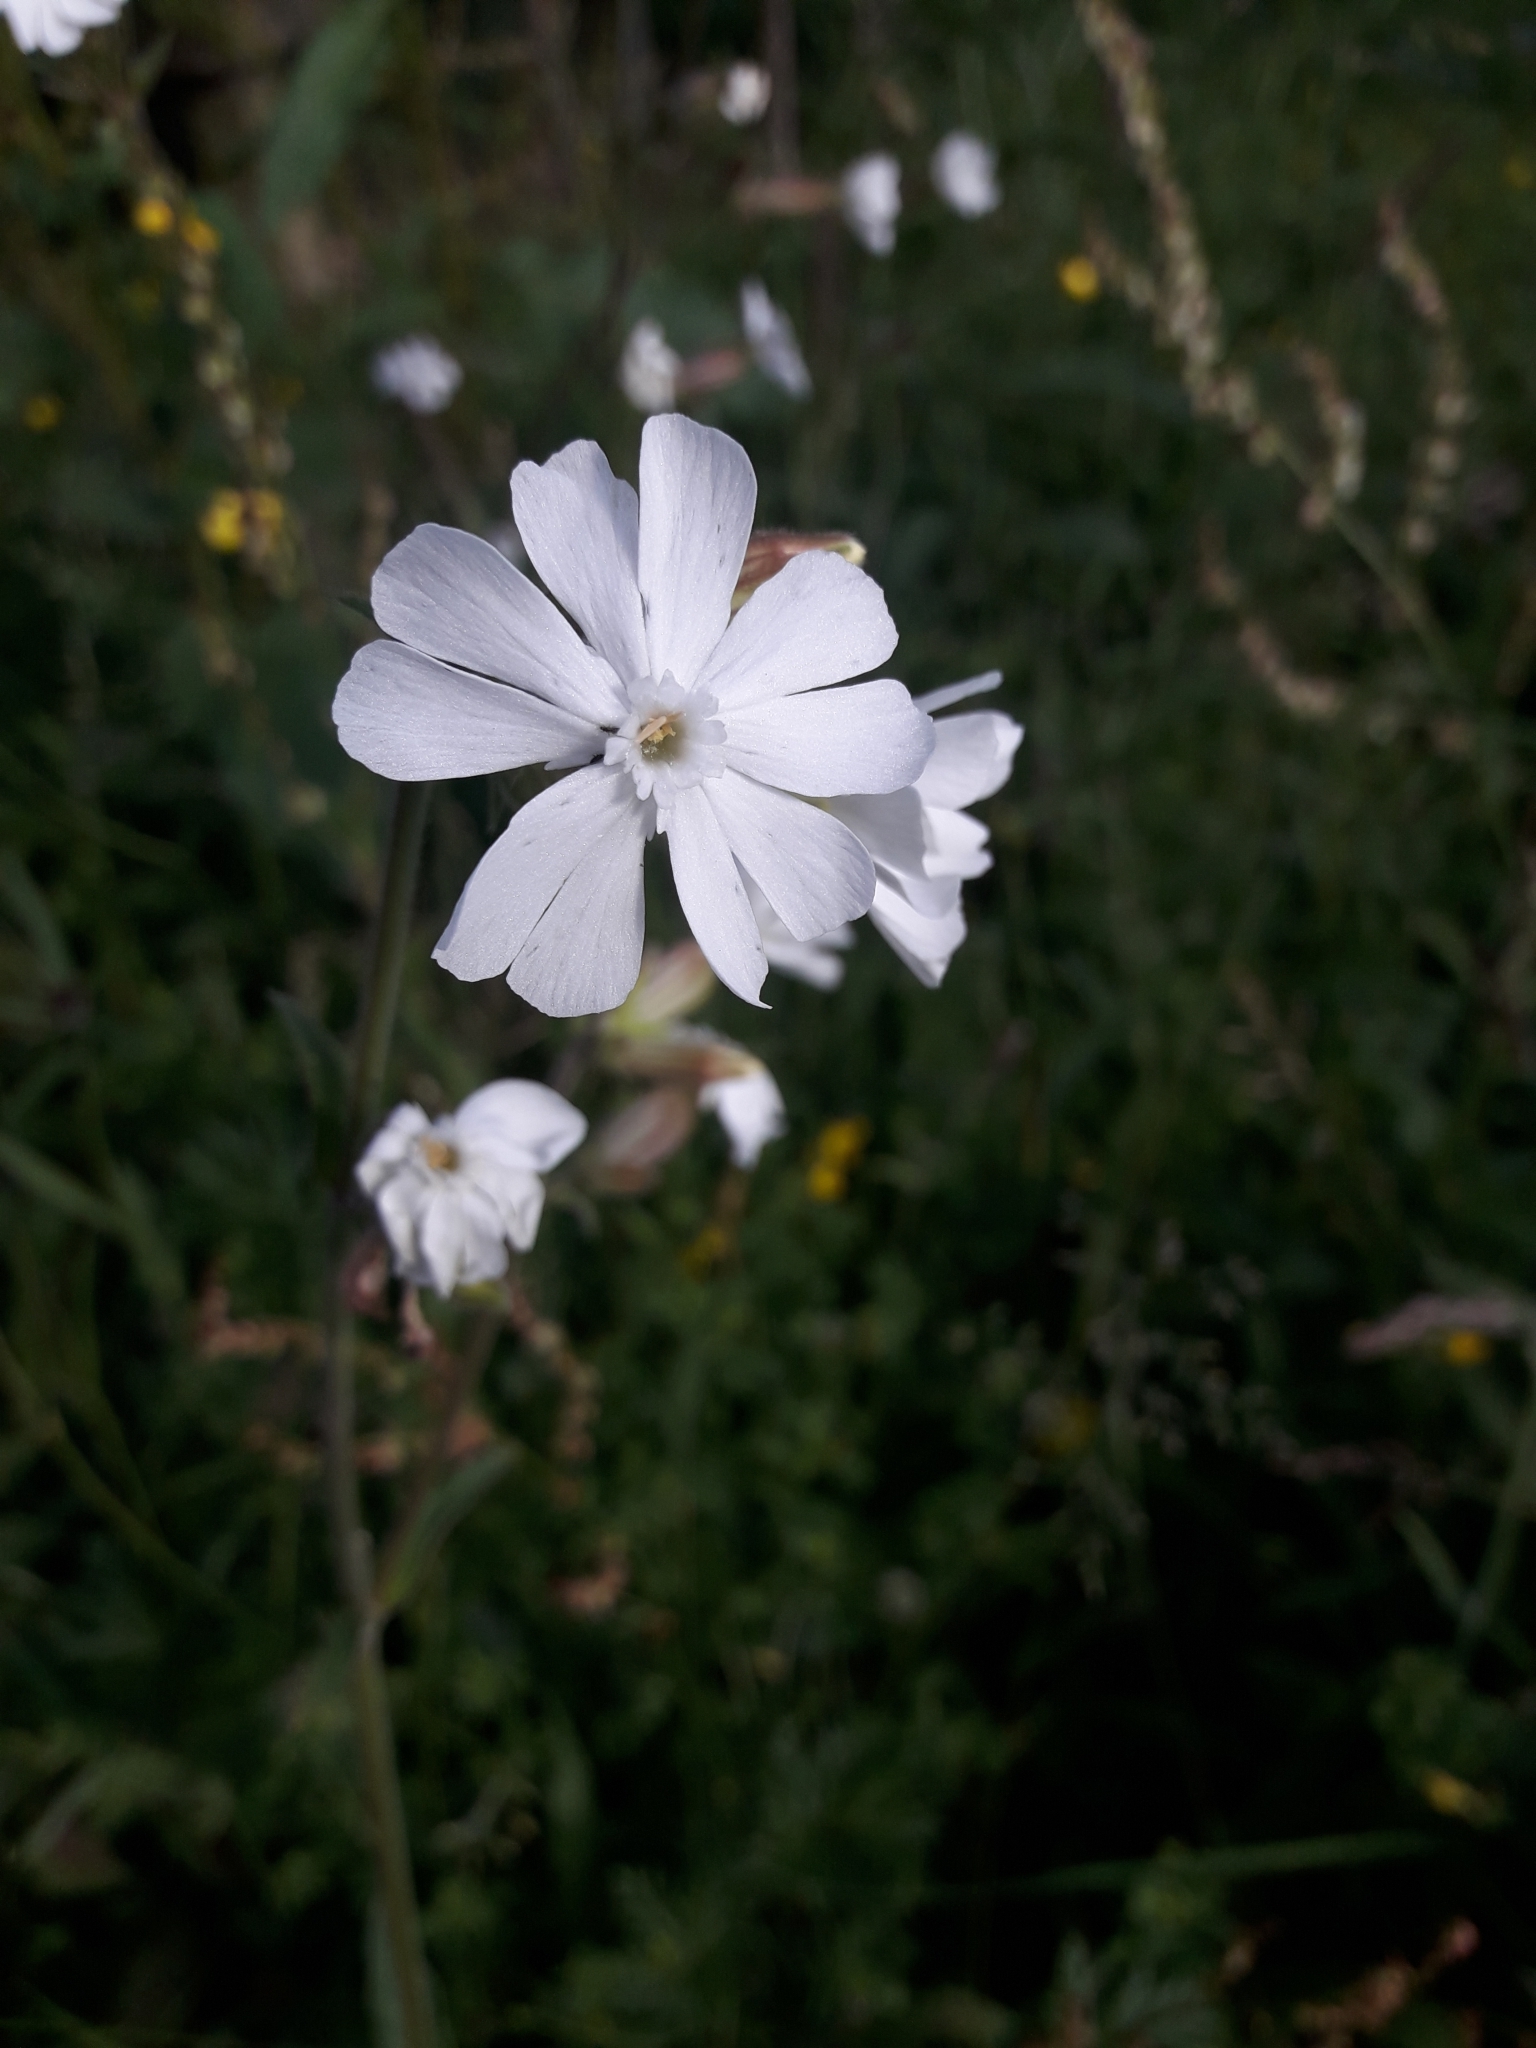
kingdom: Plantae
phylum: Tracheophyta
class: Magnoliopsida
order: Caryophyllales
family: Caryophyllaceae
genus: Silene
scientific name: Silene latifolia
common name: White campion
